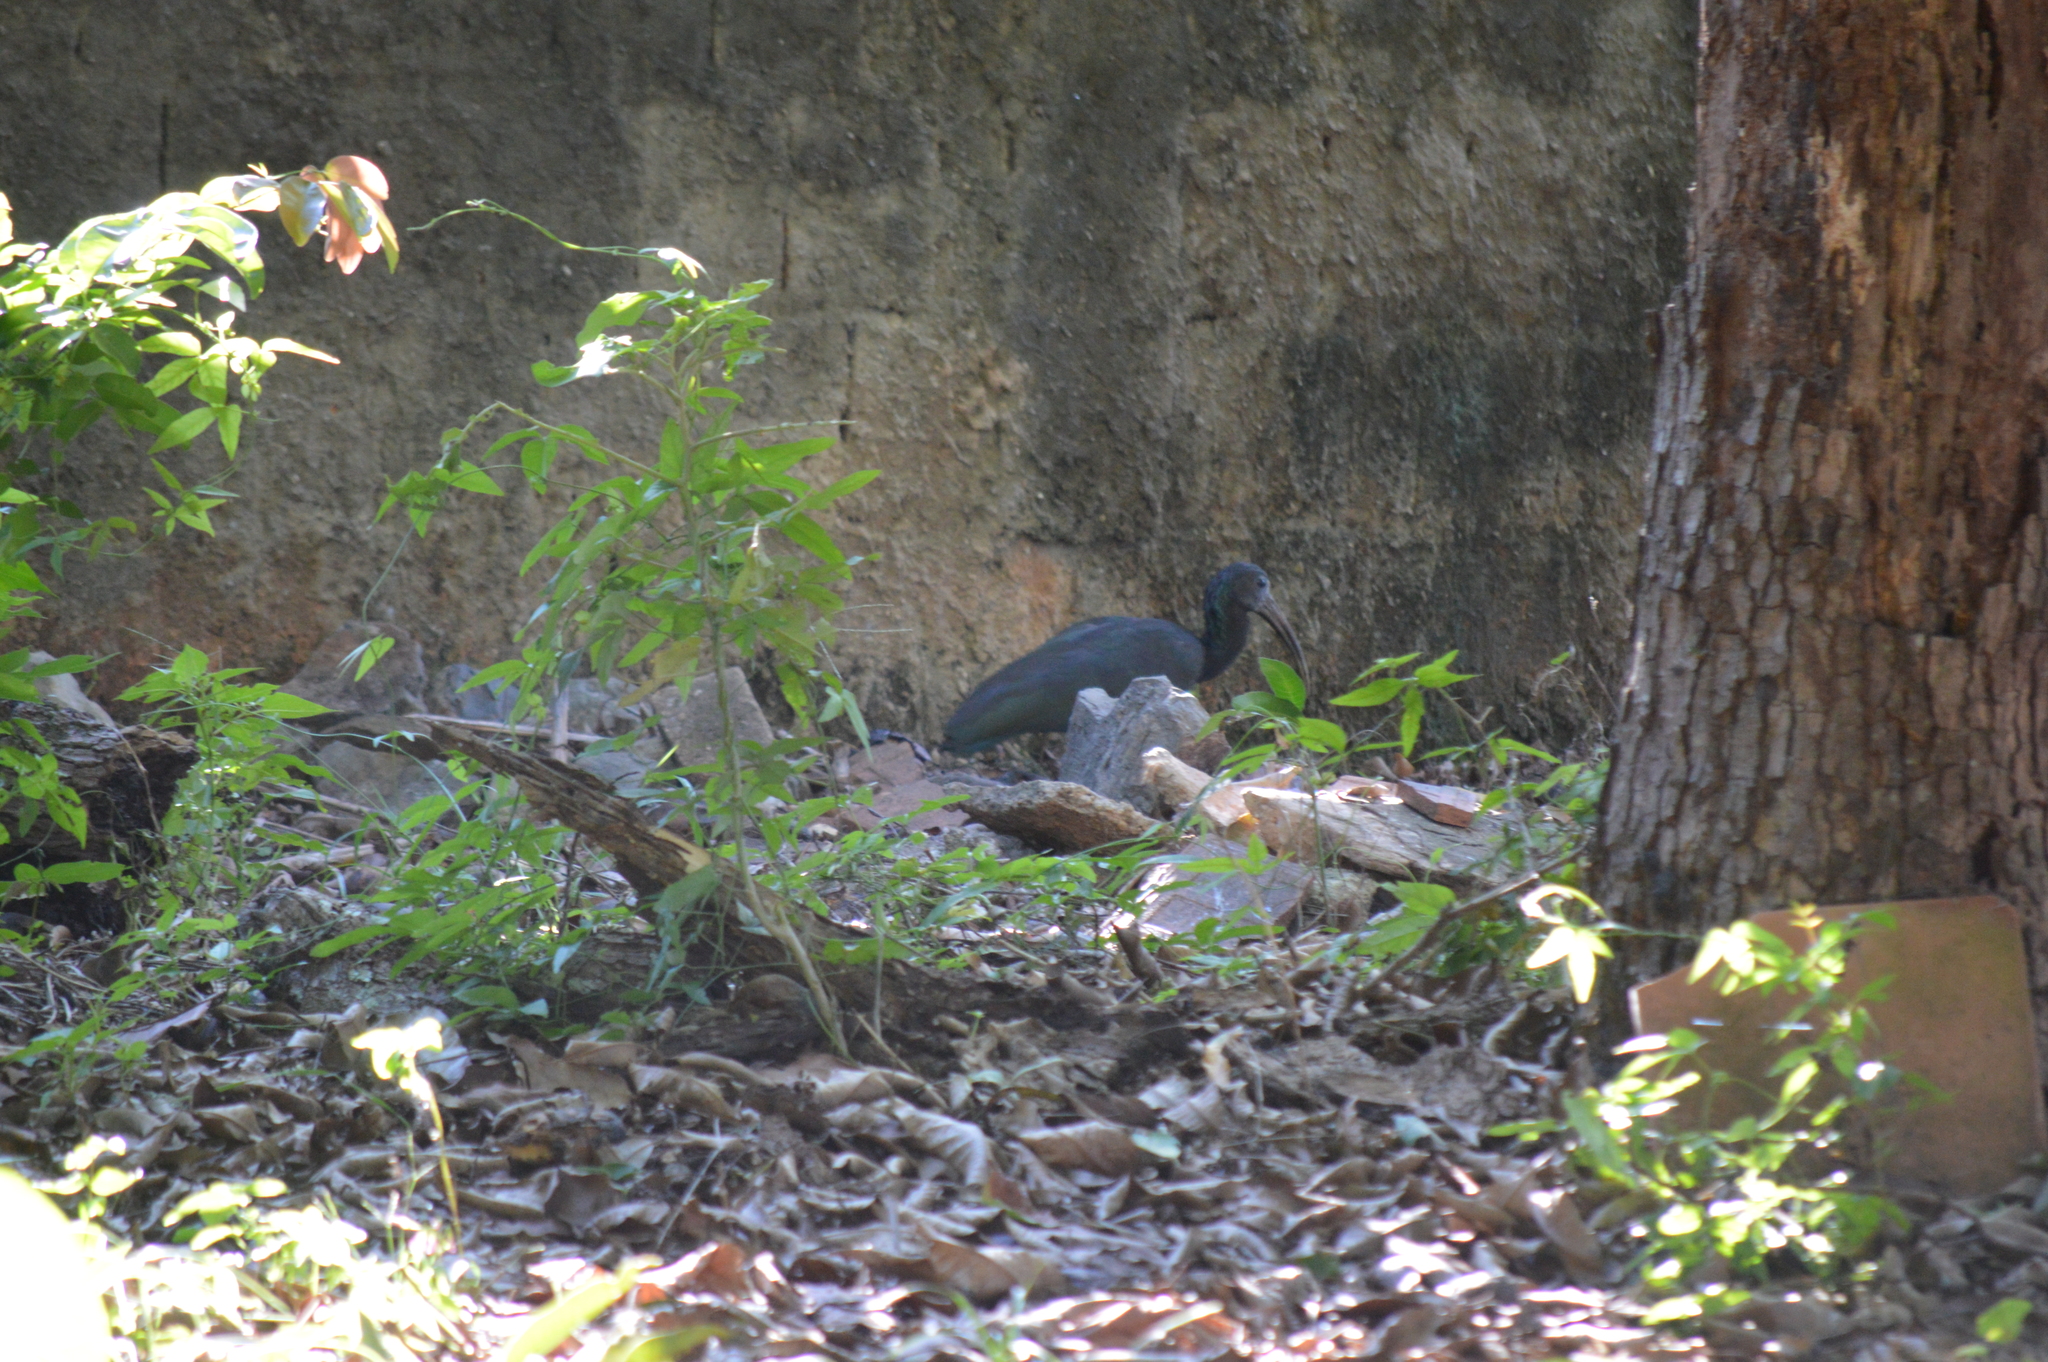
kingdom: Animalia
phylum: Chordata
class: Aves
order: Pelecaniformes
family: Threskiornithidae
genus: Mesembrinibis
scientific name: Mesembrinibis cayennensis
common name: Green ibis
